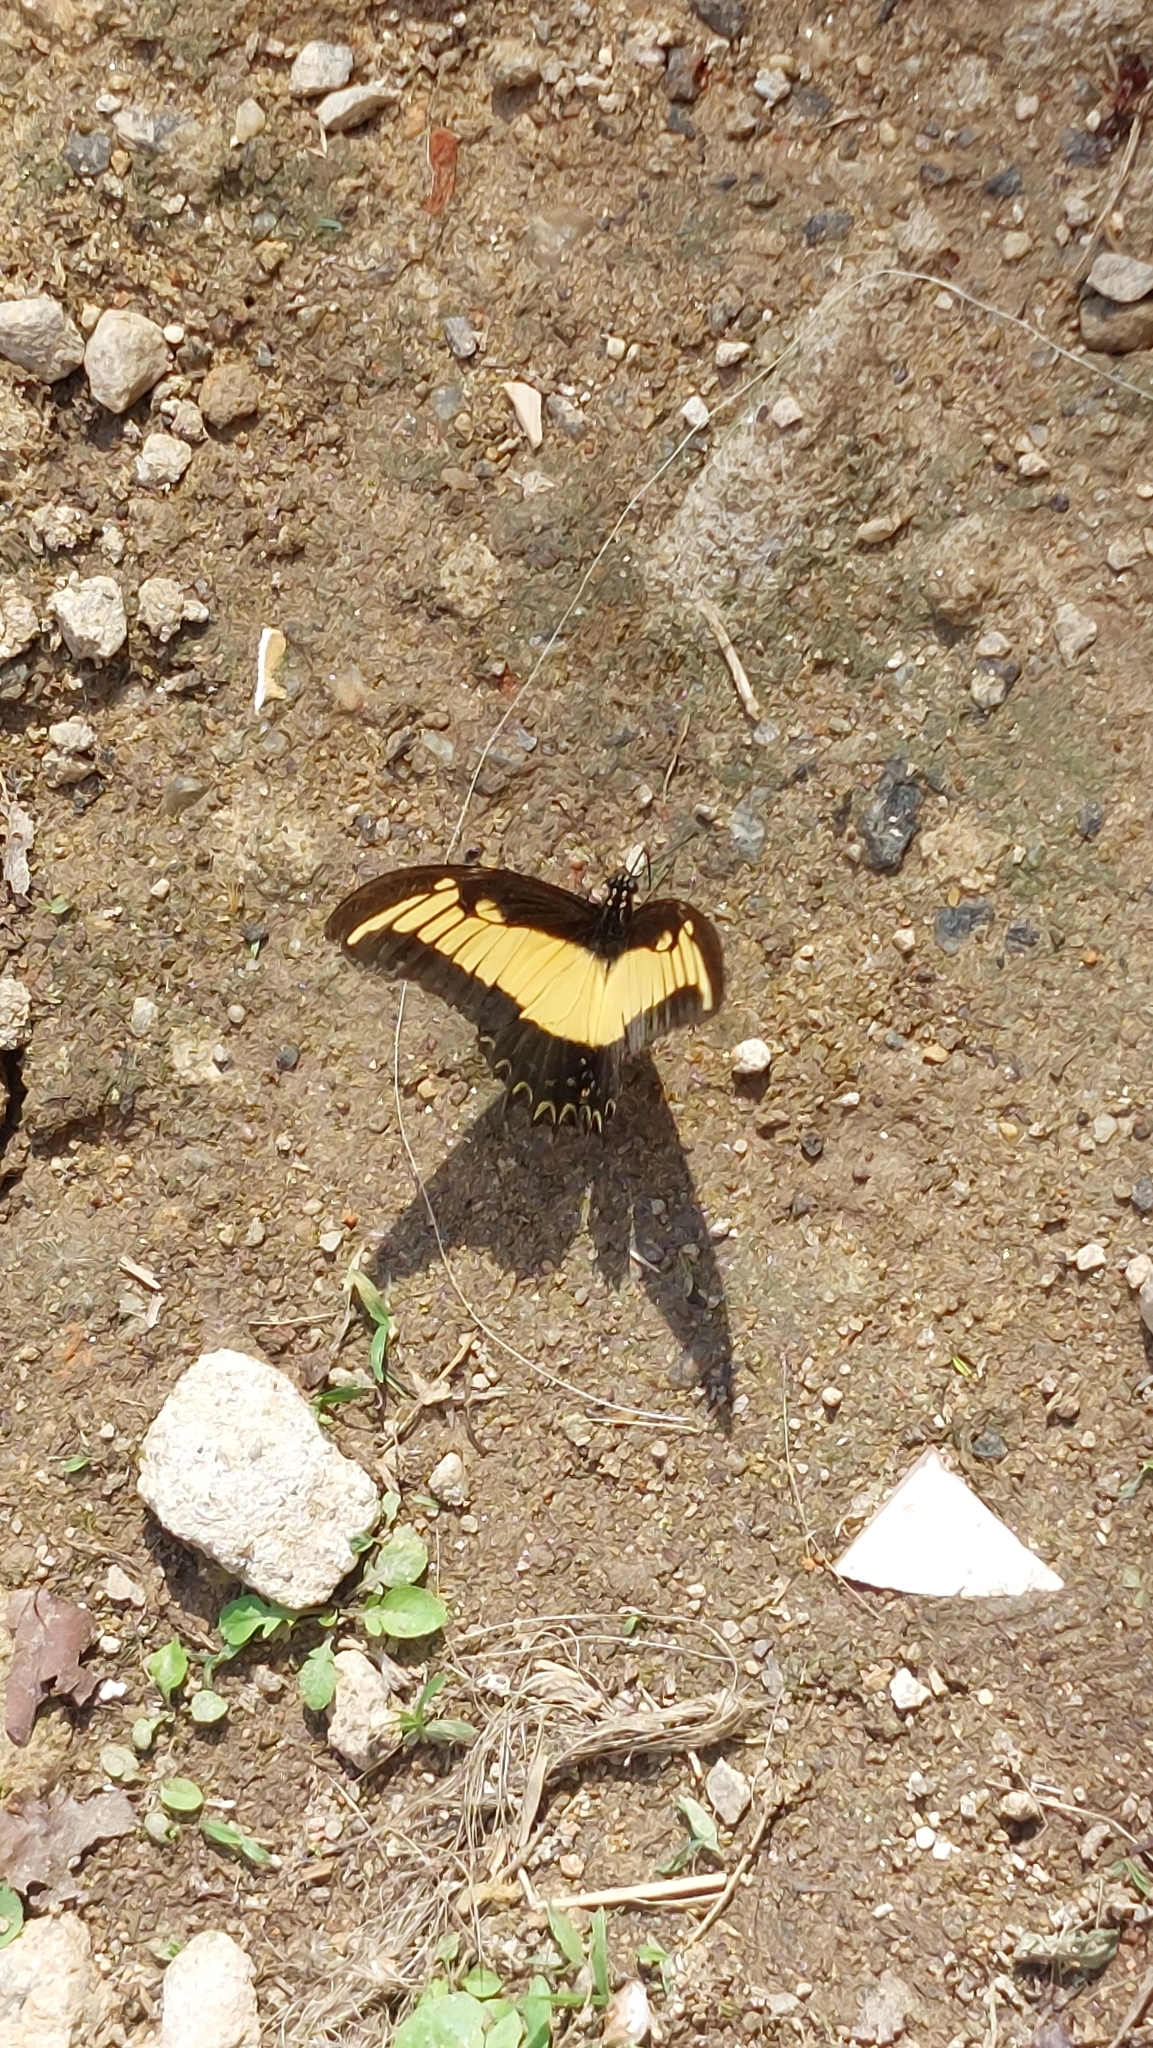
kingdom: Animalia
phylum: Arthropoda
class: Insecta
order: Lepidoptera
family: Papilionidae
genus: Papilio
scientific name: Papilio androgeus
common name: Androgeus swallowtail
